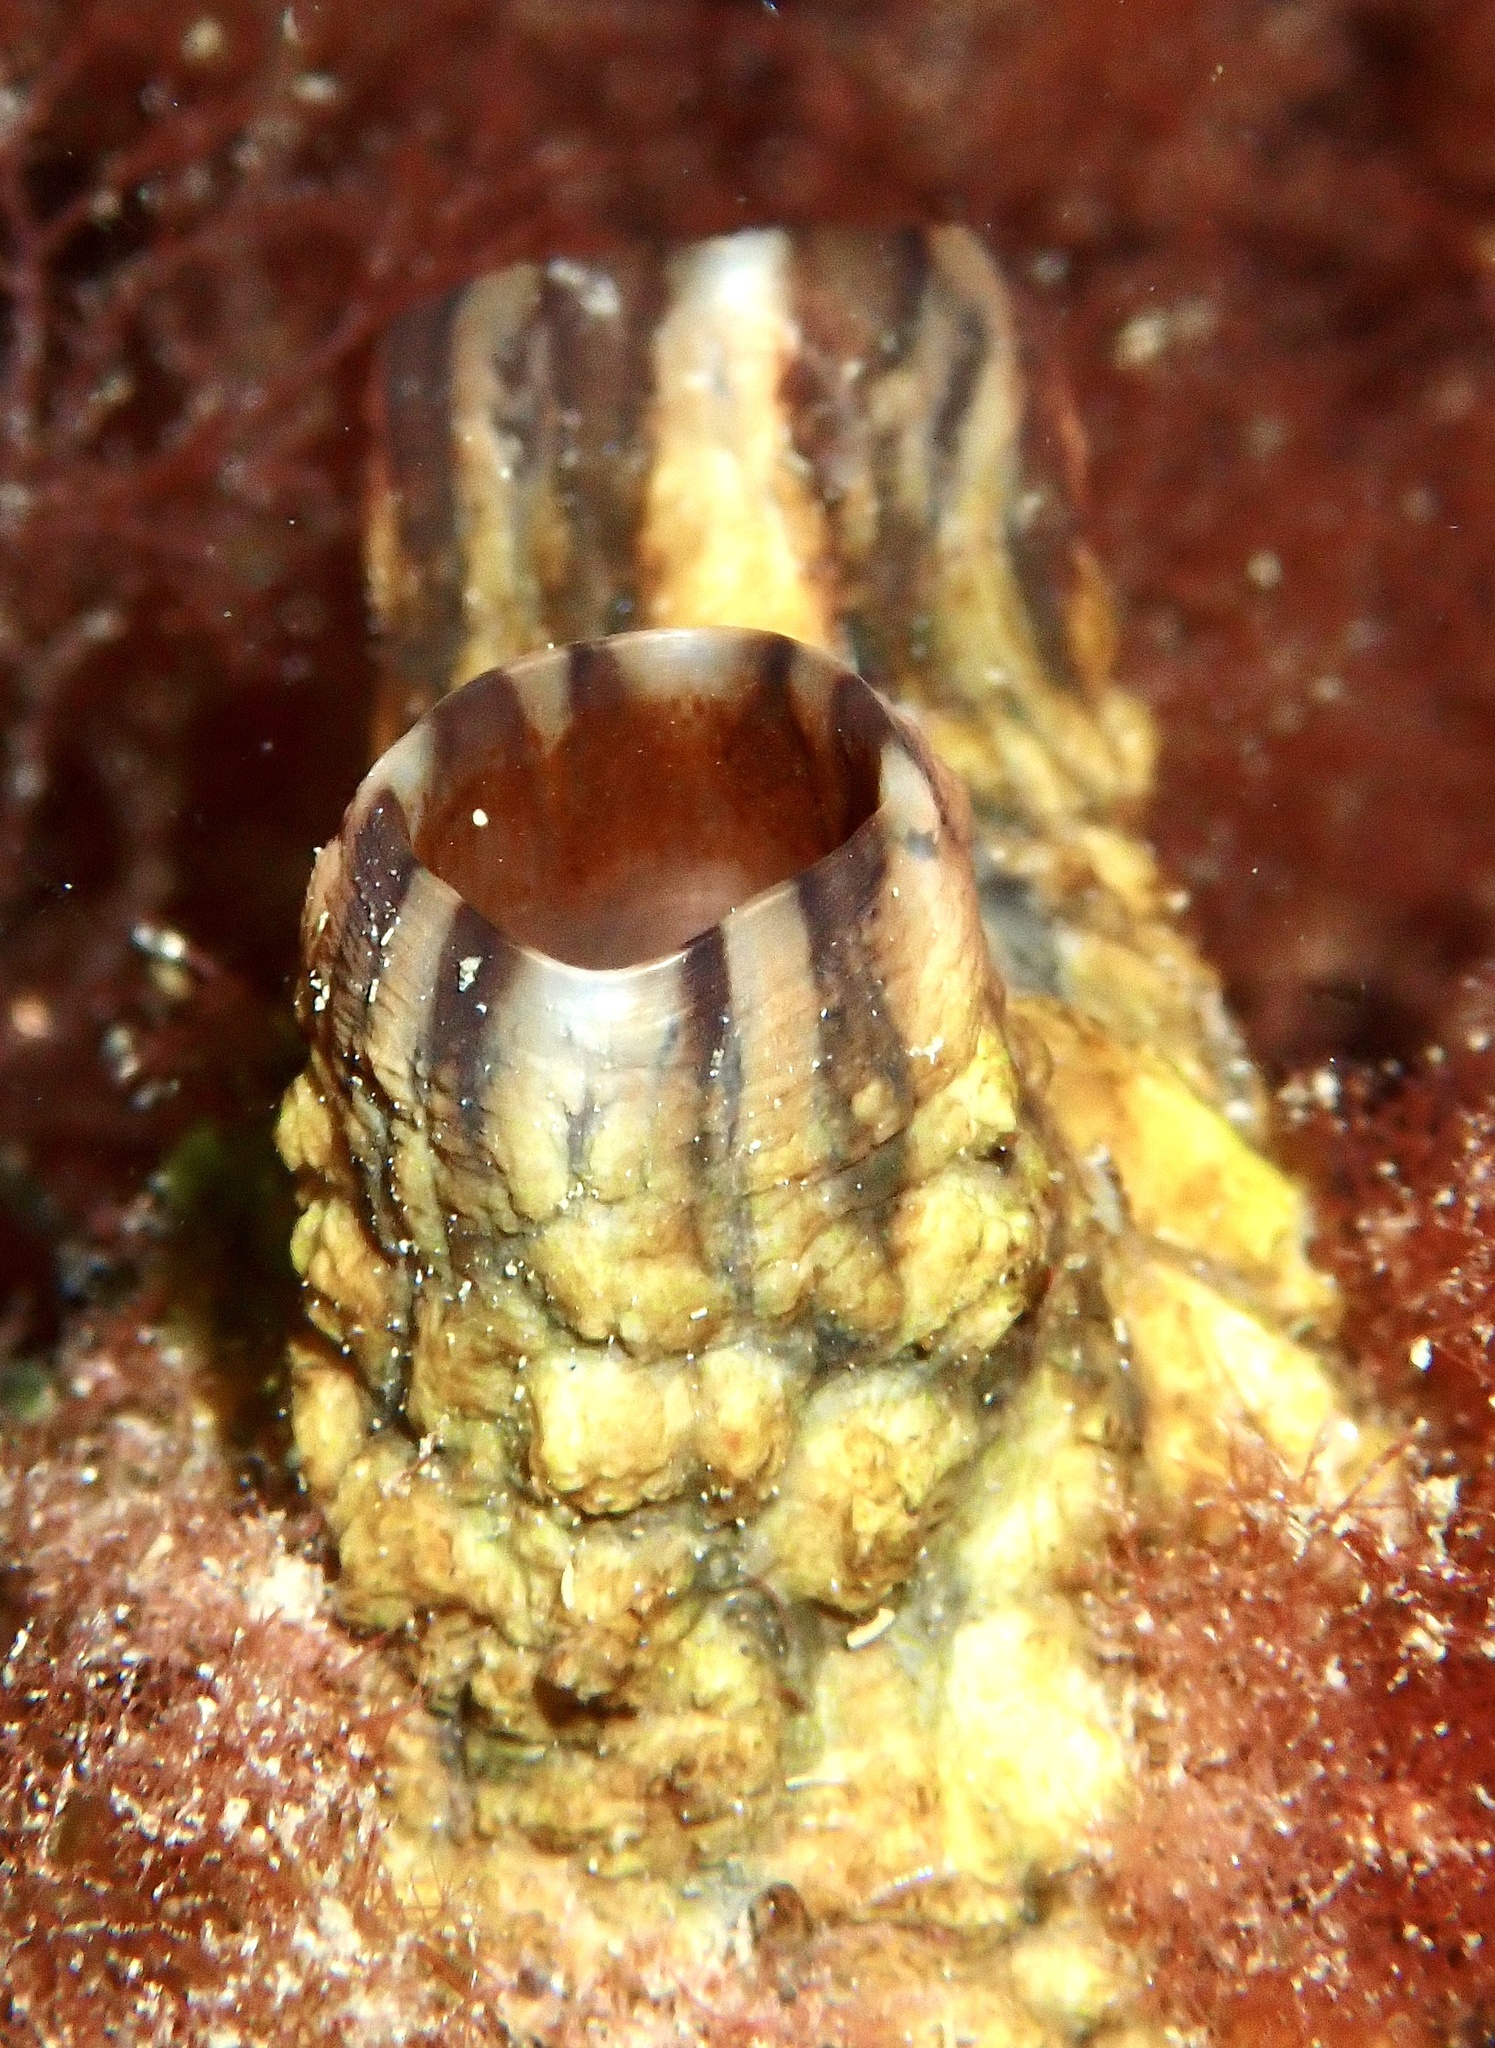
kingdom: Animalia
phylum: Chordata
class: Ascidiacea
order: Stolidobranchia
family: Styelidae
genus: Styela
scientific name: Styela clava
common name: Leathery sea squirt
